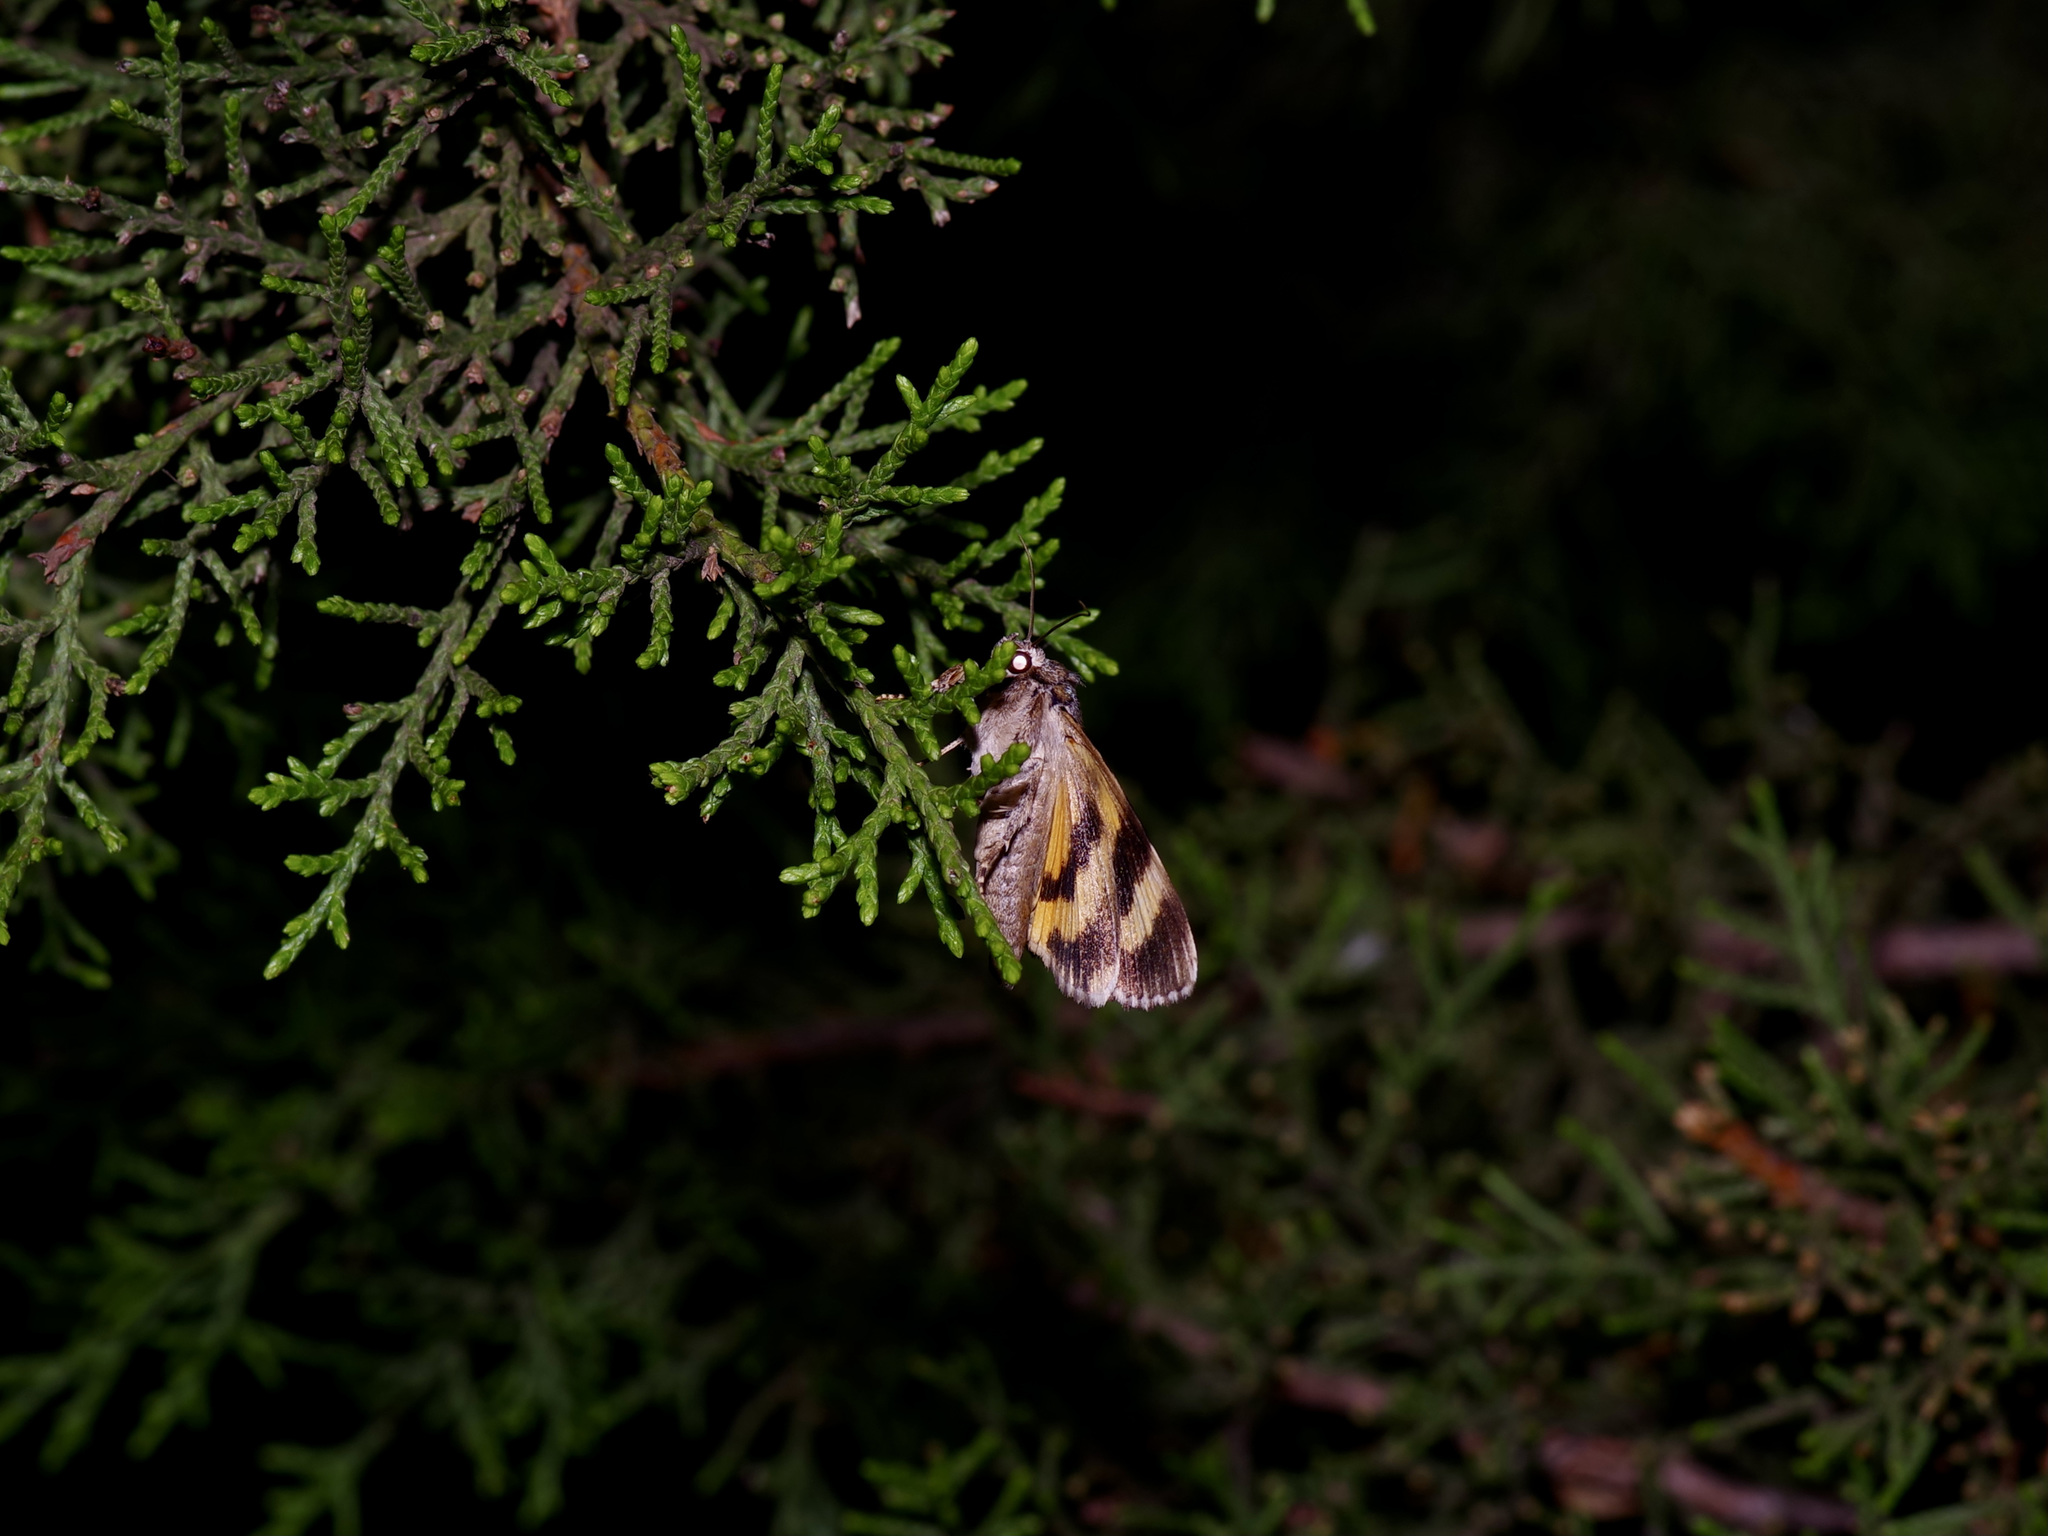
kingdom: Animalia
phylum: Arthropoda
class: Insecta
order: Lepidoptera
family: Erebidae
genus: Catocala
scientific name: Catocala micronympha
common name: Little nymph underwing
